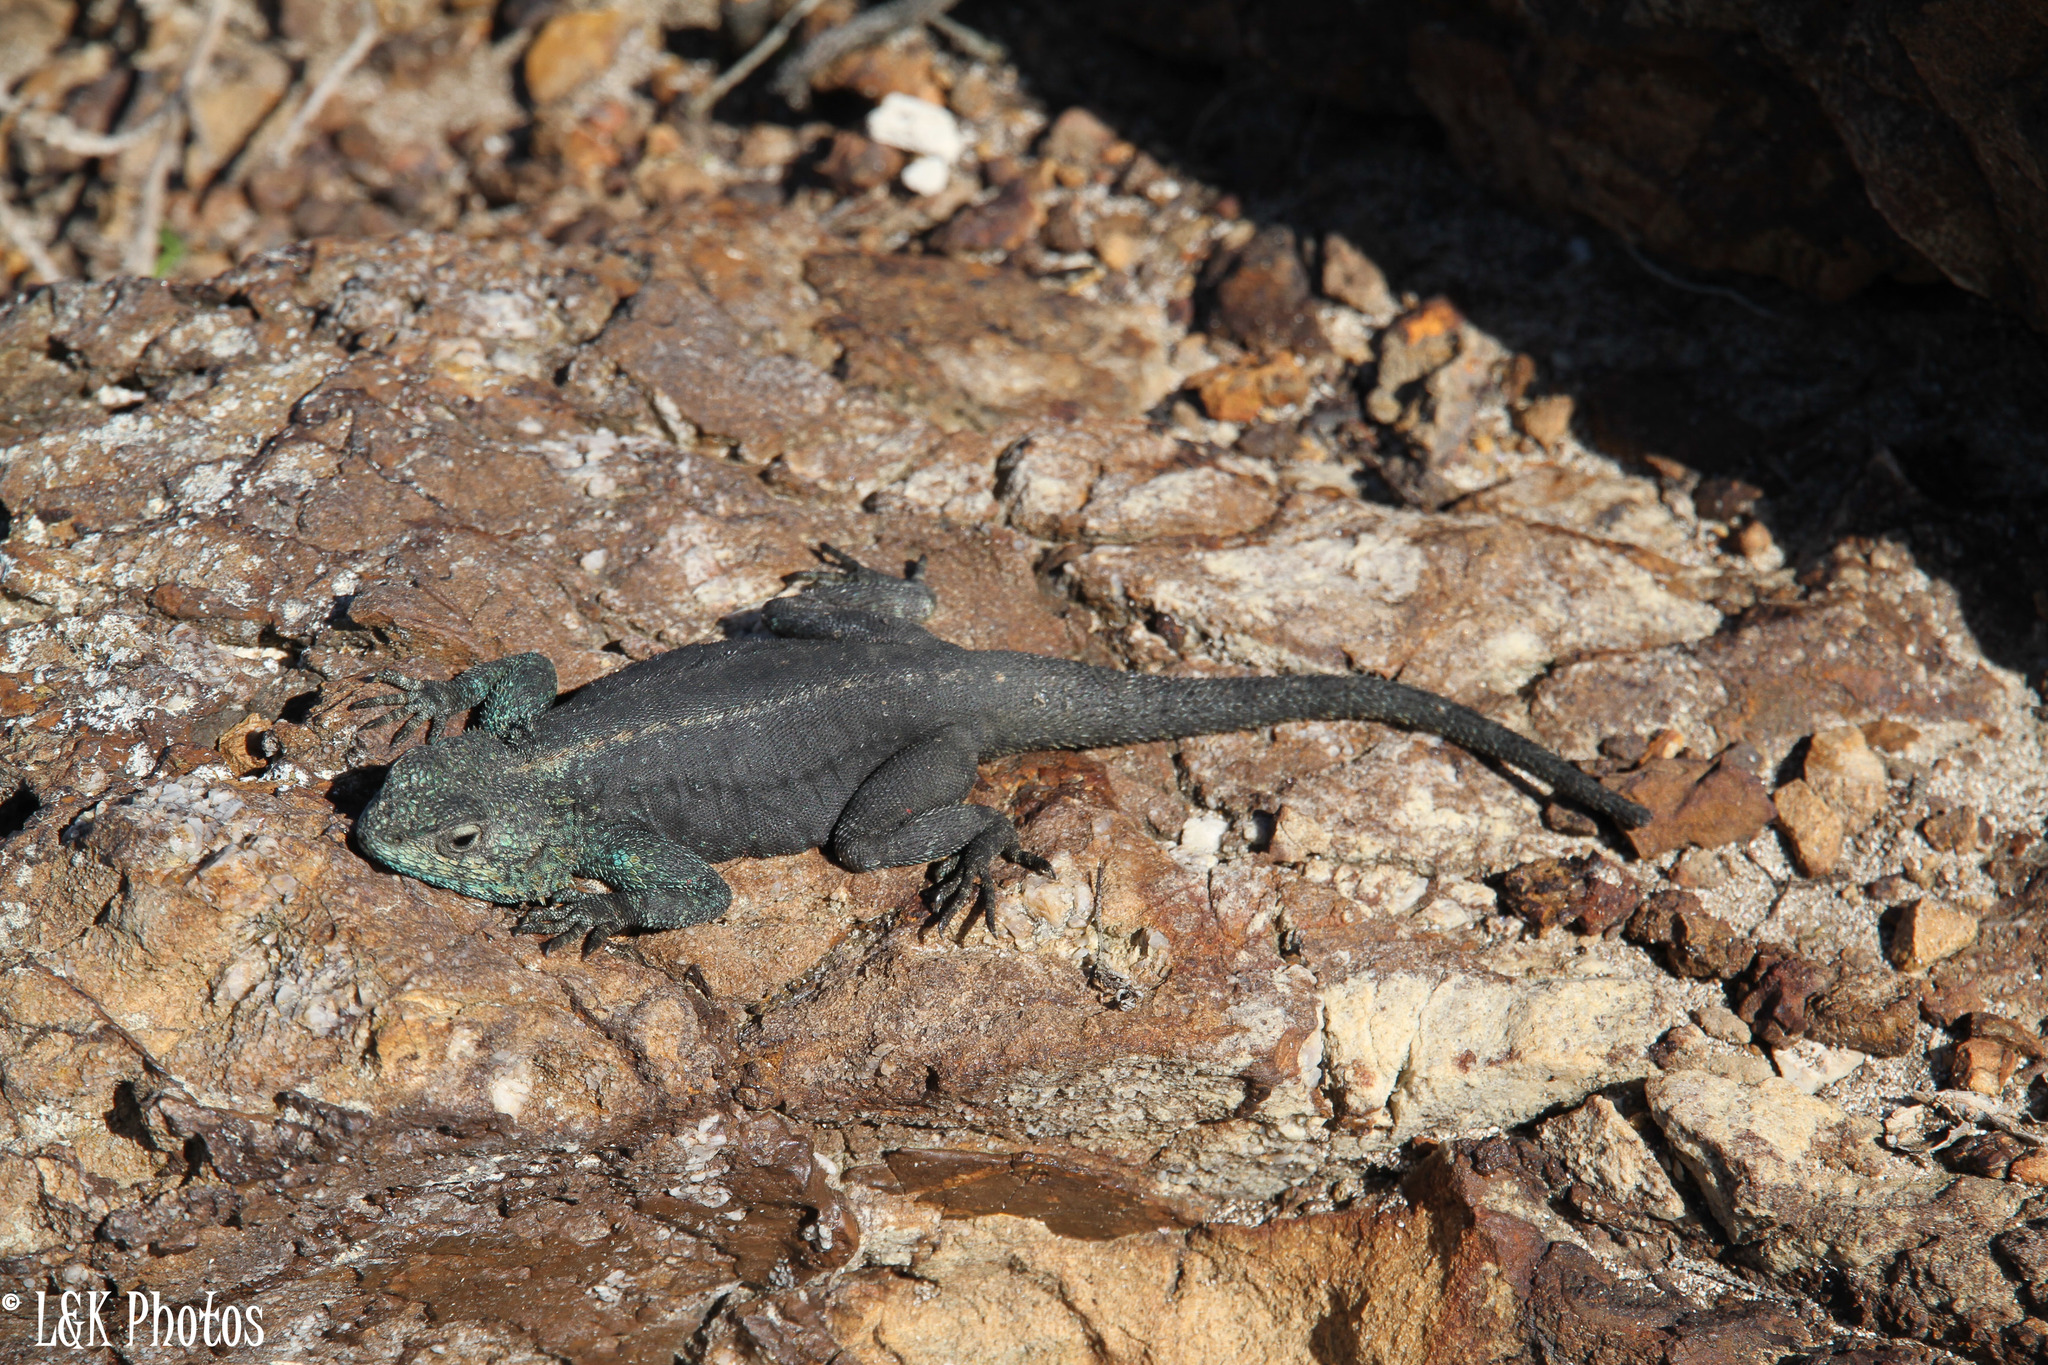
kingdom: Animalia
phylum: Chordata
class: Squamata
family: Agamidae
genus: Agama
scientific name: Agama atra
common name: Southern african rock agama
